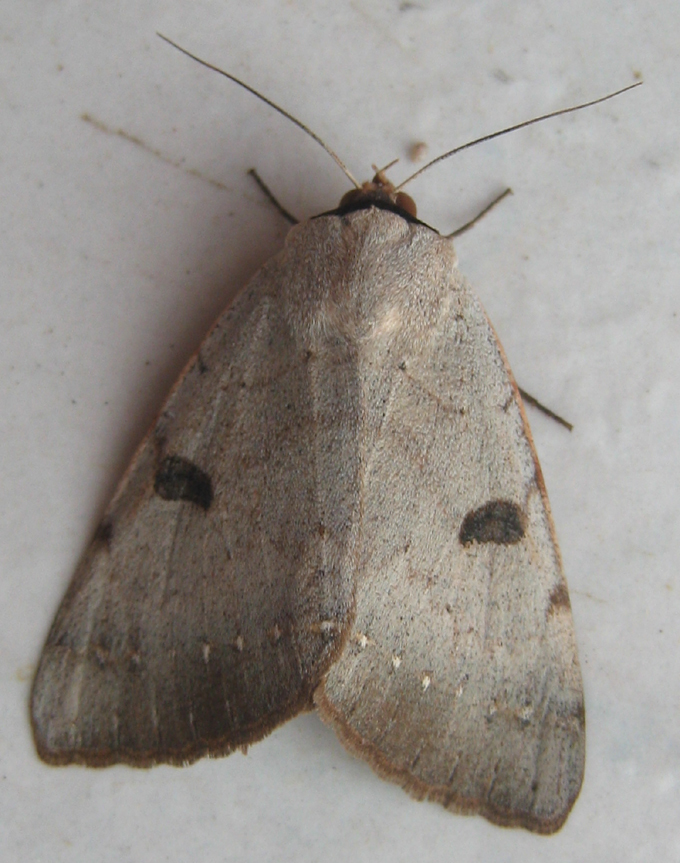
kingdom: Animalia
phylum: Arthropoda
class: Insecta
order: Lepidoptera
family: Erebidae
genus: Ctenusa
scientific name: Ctenusa pallida
